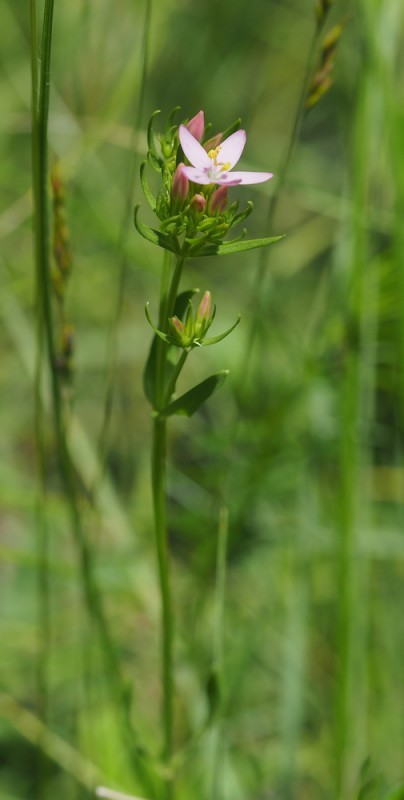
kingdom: Plantae
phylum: Tracheophyta
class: Magnoliopsida
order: Gentianales
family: Gentianaceae
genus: Centaurium
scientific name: Centaurium erythraea
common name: Common centaury
